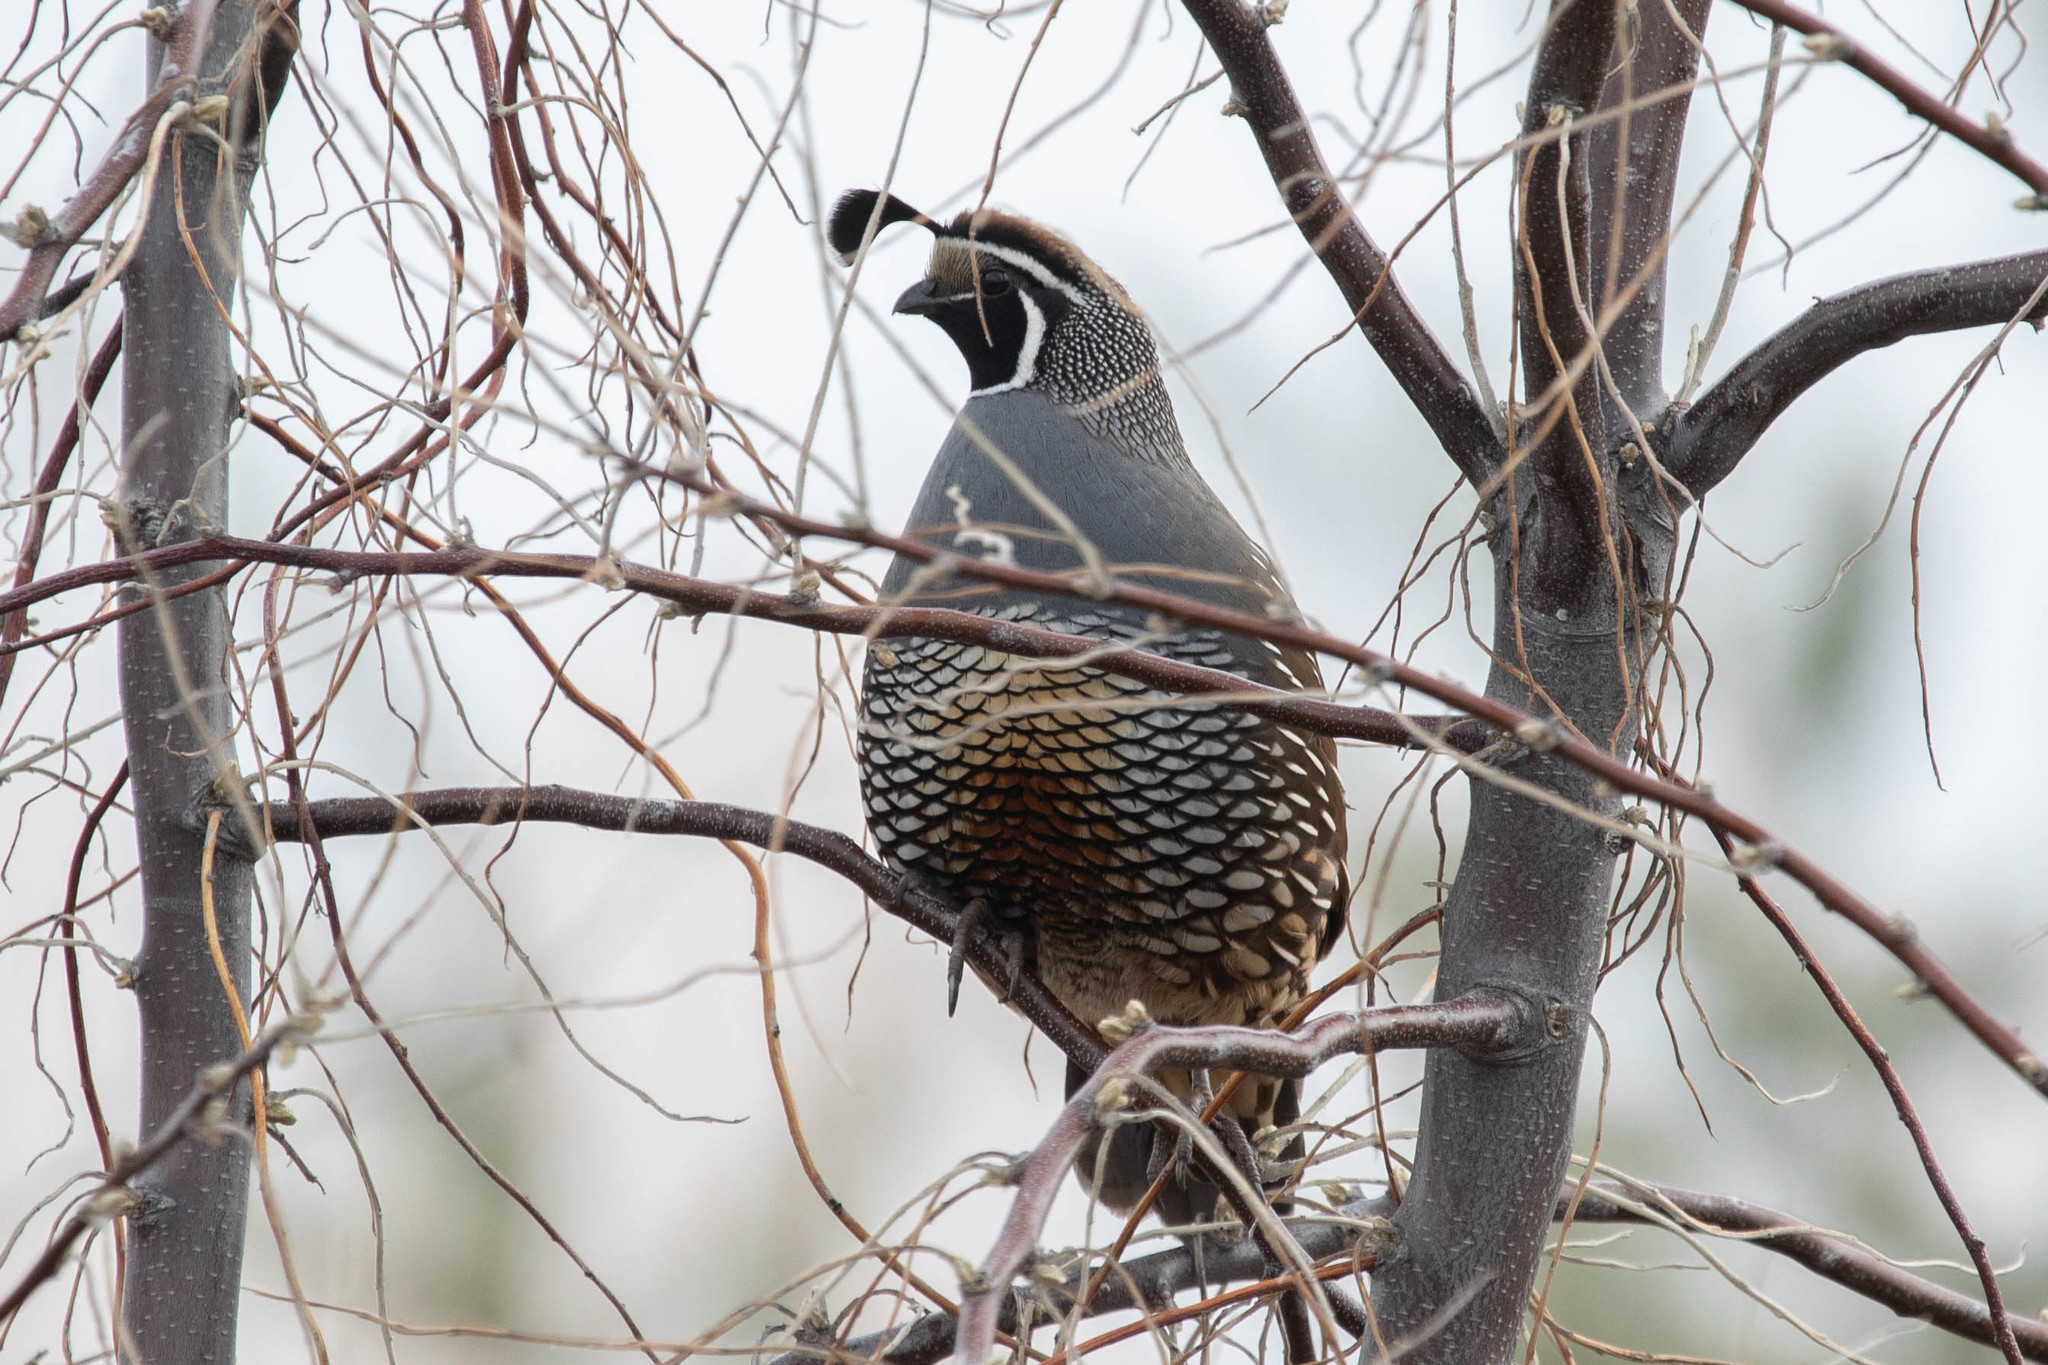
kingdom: Animalia
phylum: Chordata
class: Aves
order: Galliformes
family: Odontophoridae
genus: Callipepla
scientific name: Callipepla californica
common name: California quail
